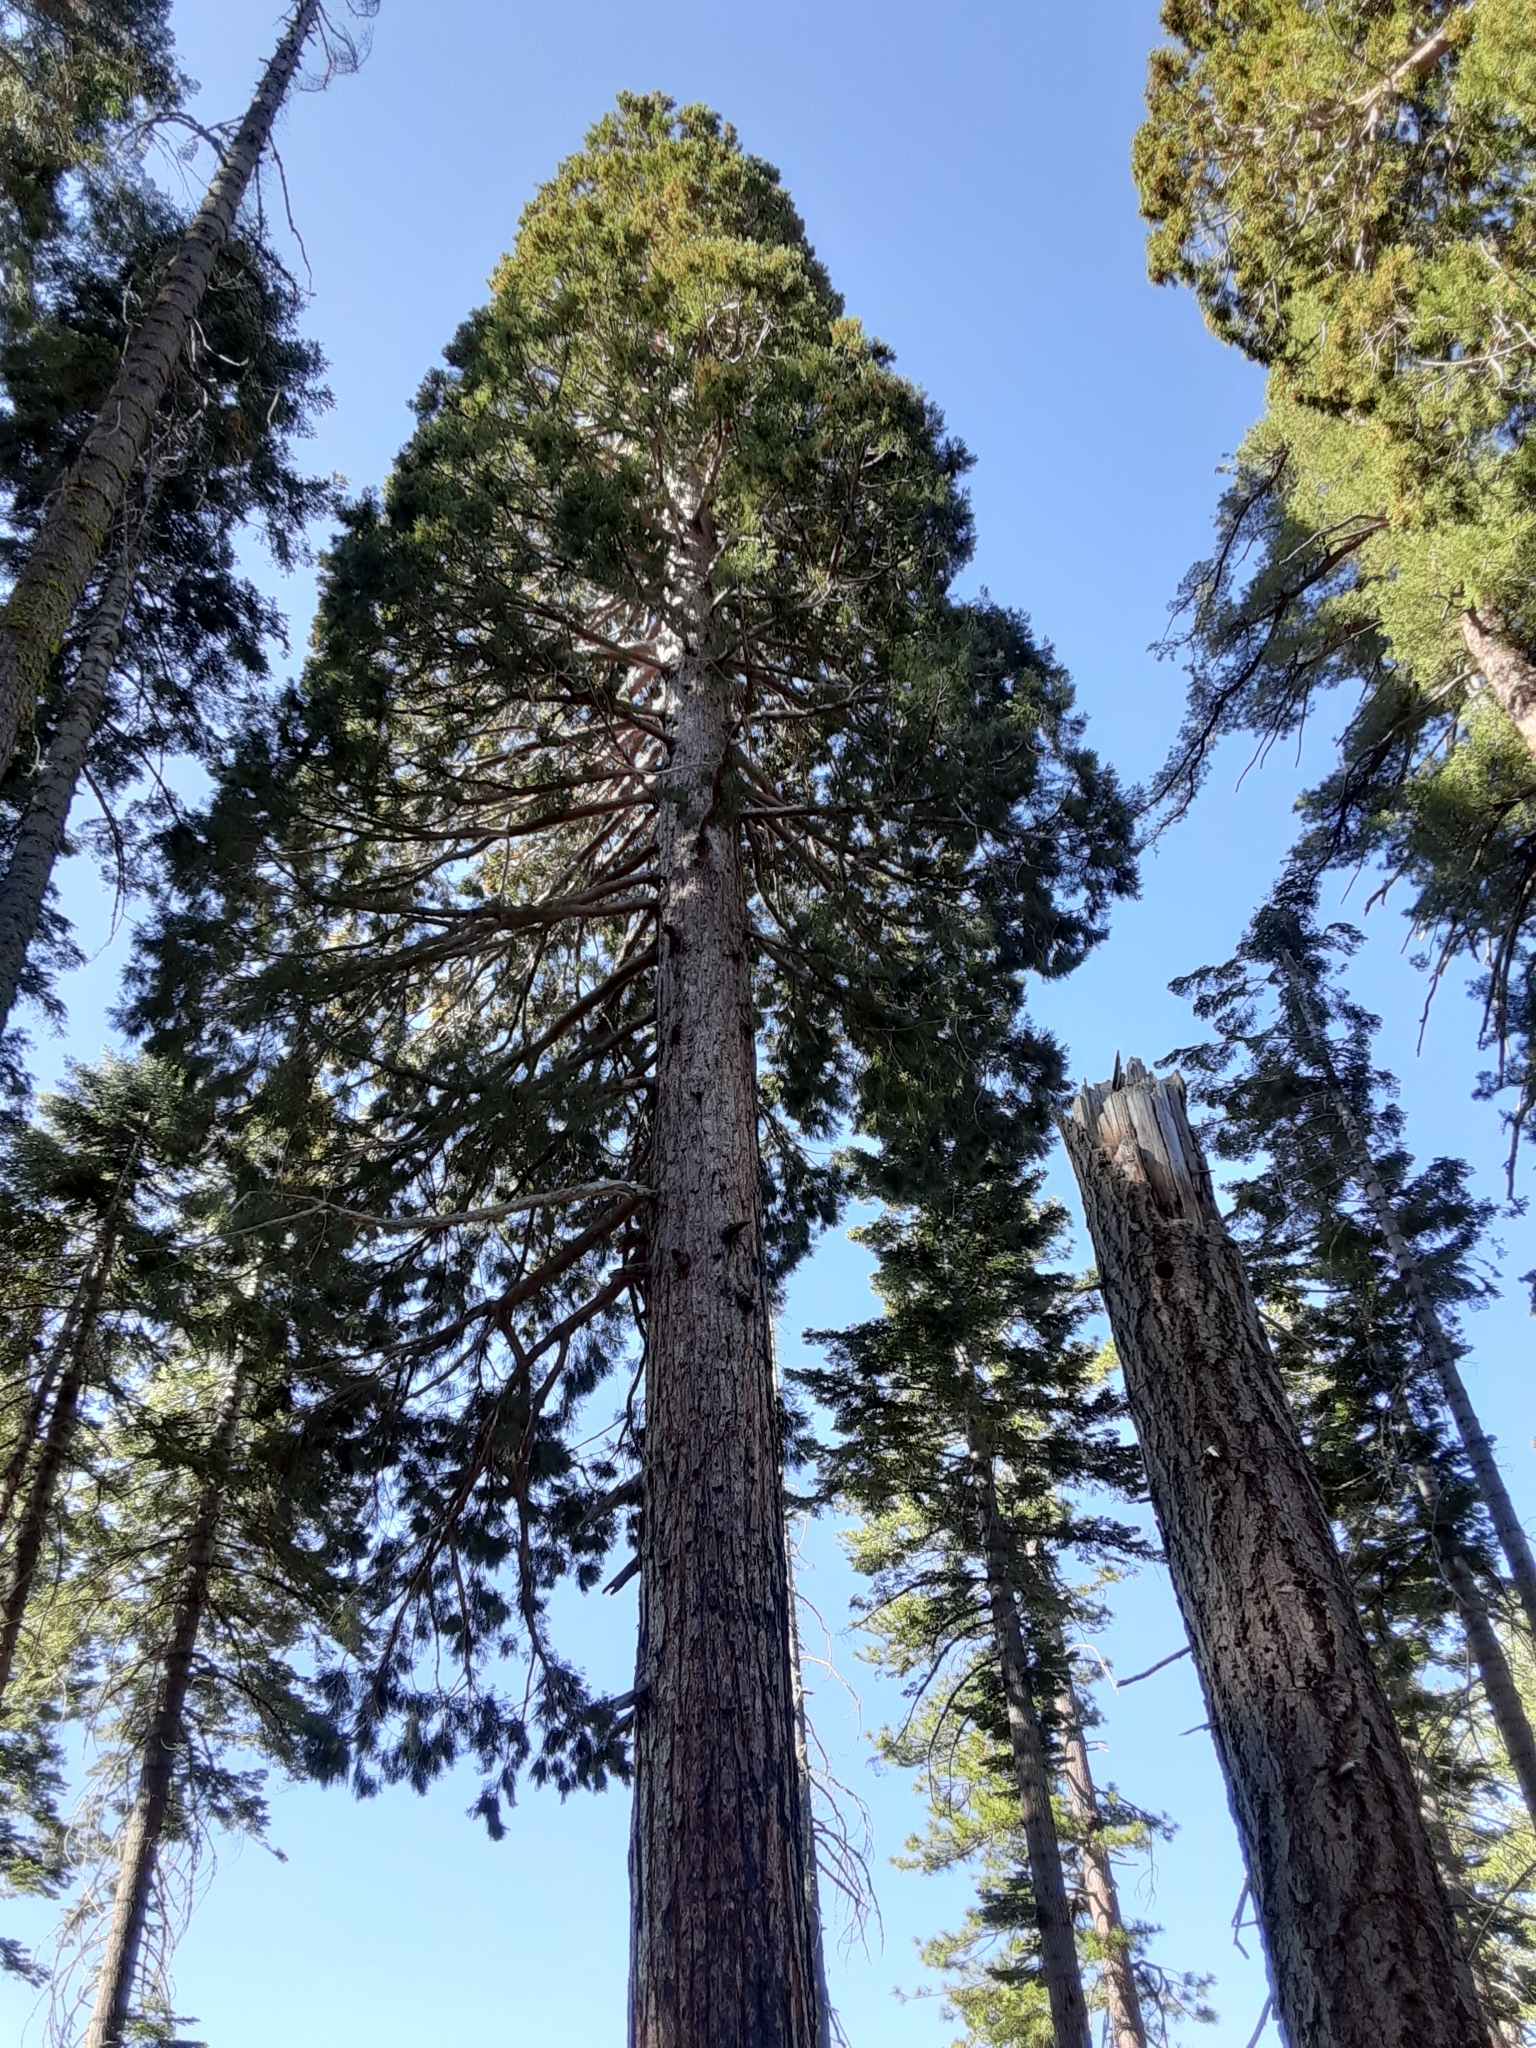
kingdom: Plantae
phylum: Tracheophyta
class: Pinopsida
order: Pinales
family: Cupressaceae
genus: Sequoiadendron
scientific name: Sequoiadendron giganteum
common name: Wellingtonia
